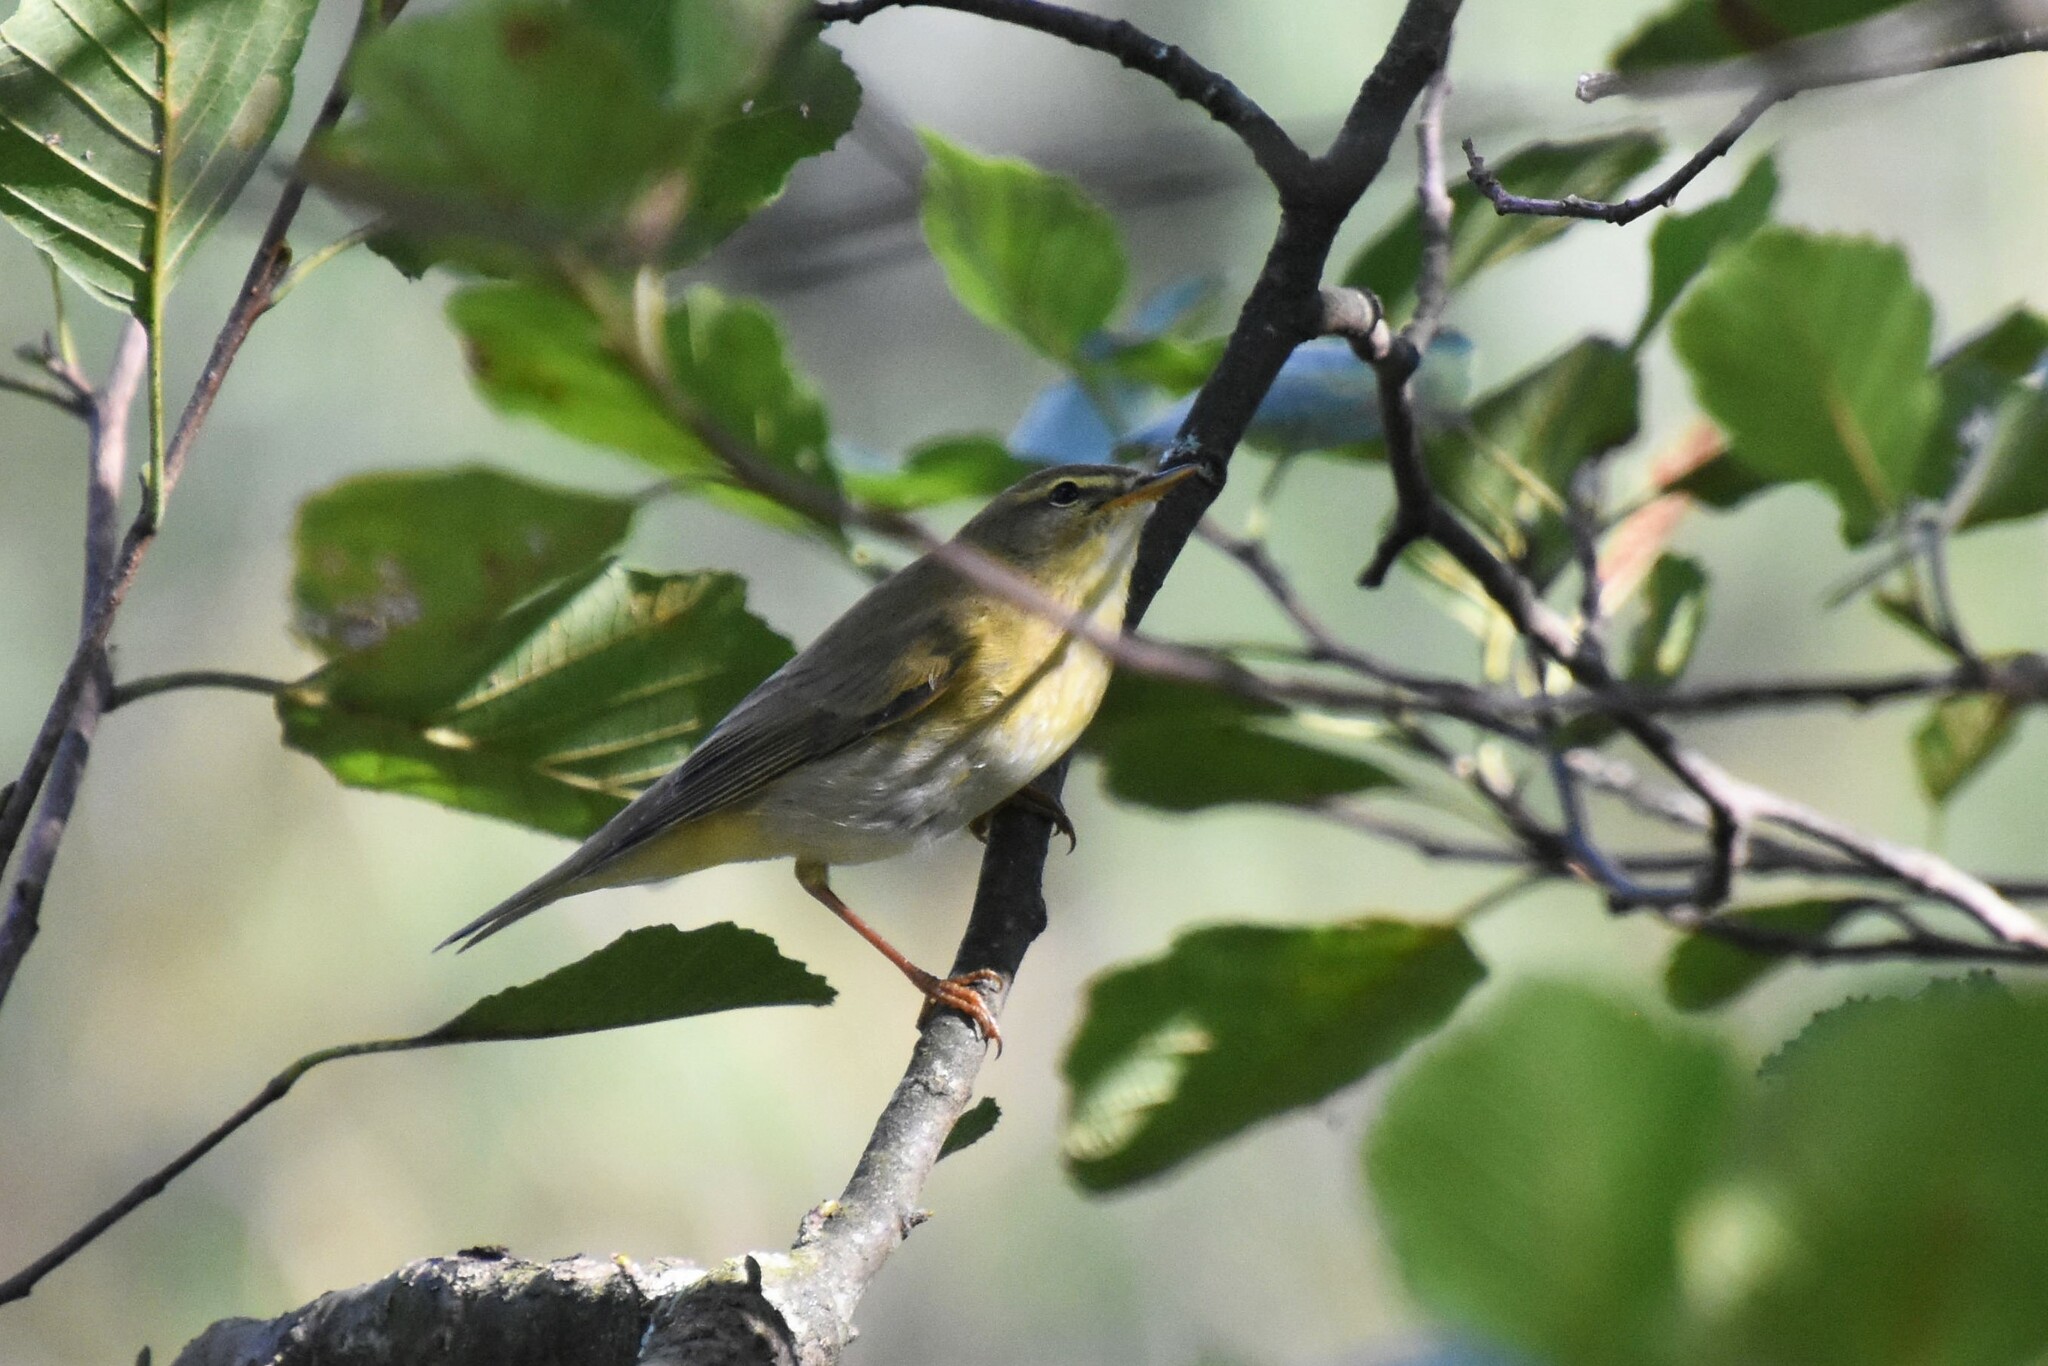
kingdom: Animalia
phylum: Chordata
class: Aves
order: Passeriformes
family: Phylloscopidae
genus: Phylloscopus
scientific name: Phylloscopus trochilus
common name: Willow warbler
